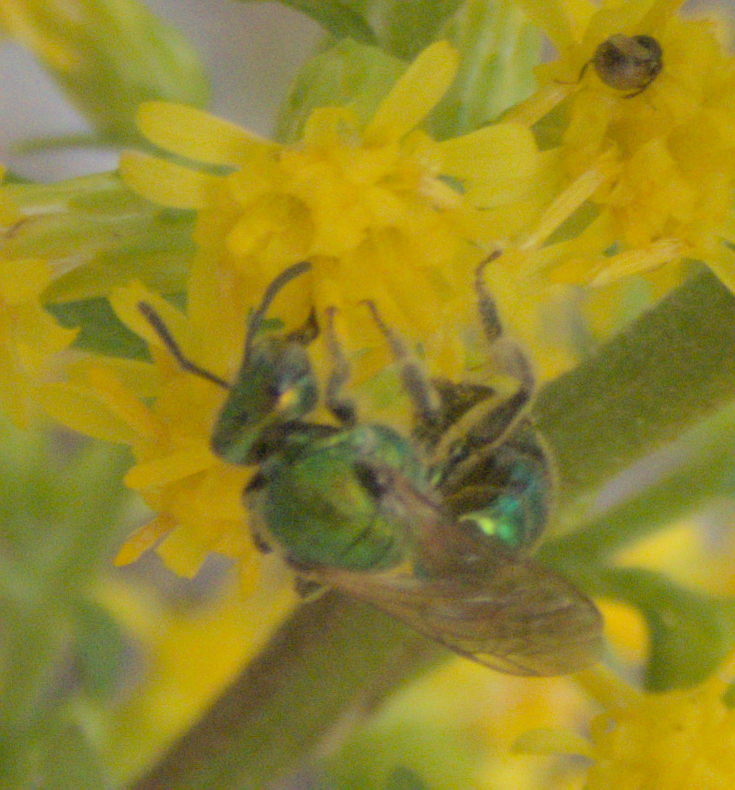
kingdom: Animalia
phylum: Arthropoda
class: Insecta
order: Hymenoptera
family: Halictidae
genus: Augochlorella
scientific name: Augochlorella aurata
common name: Golden sweat bee
